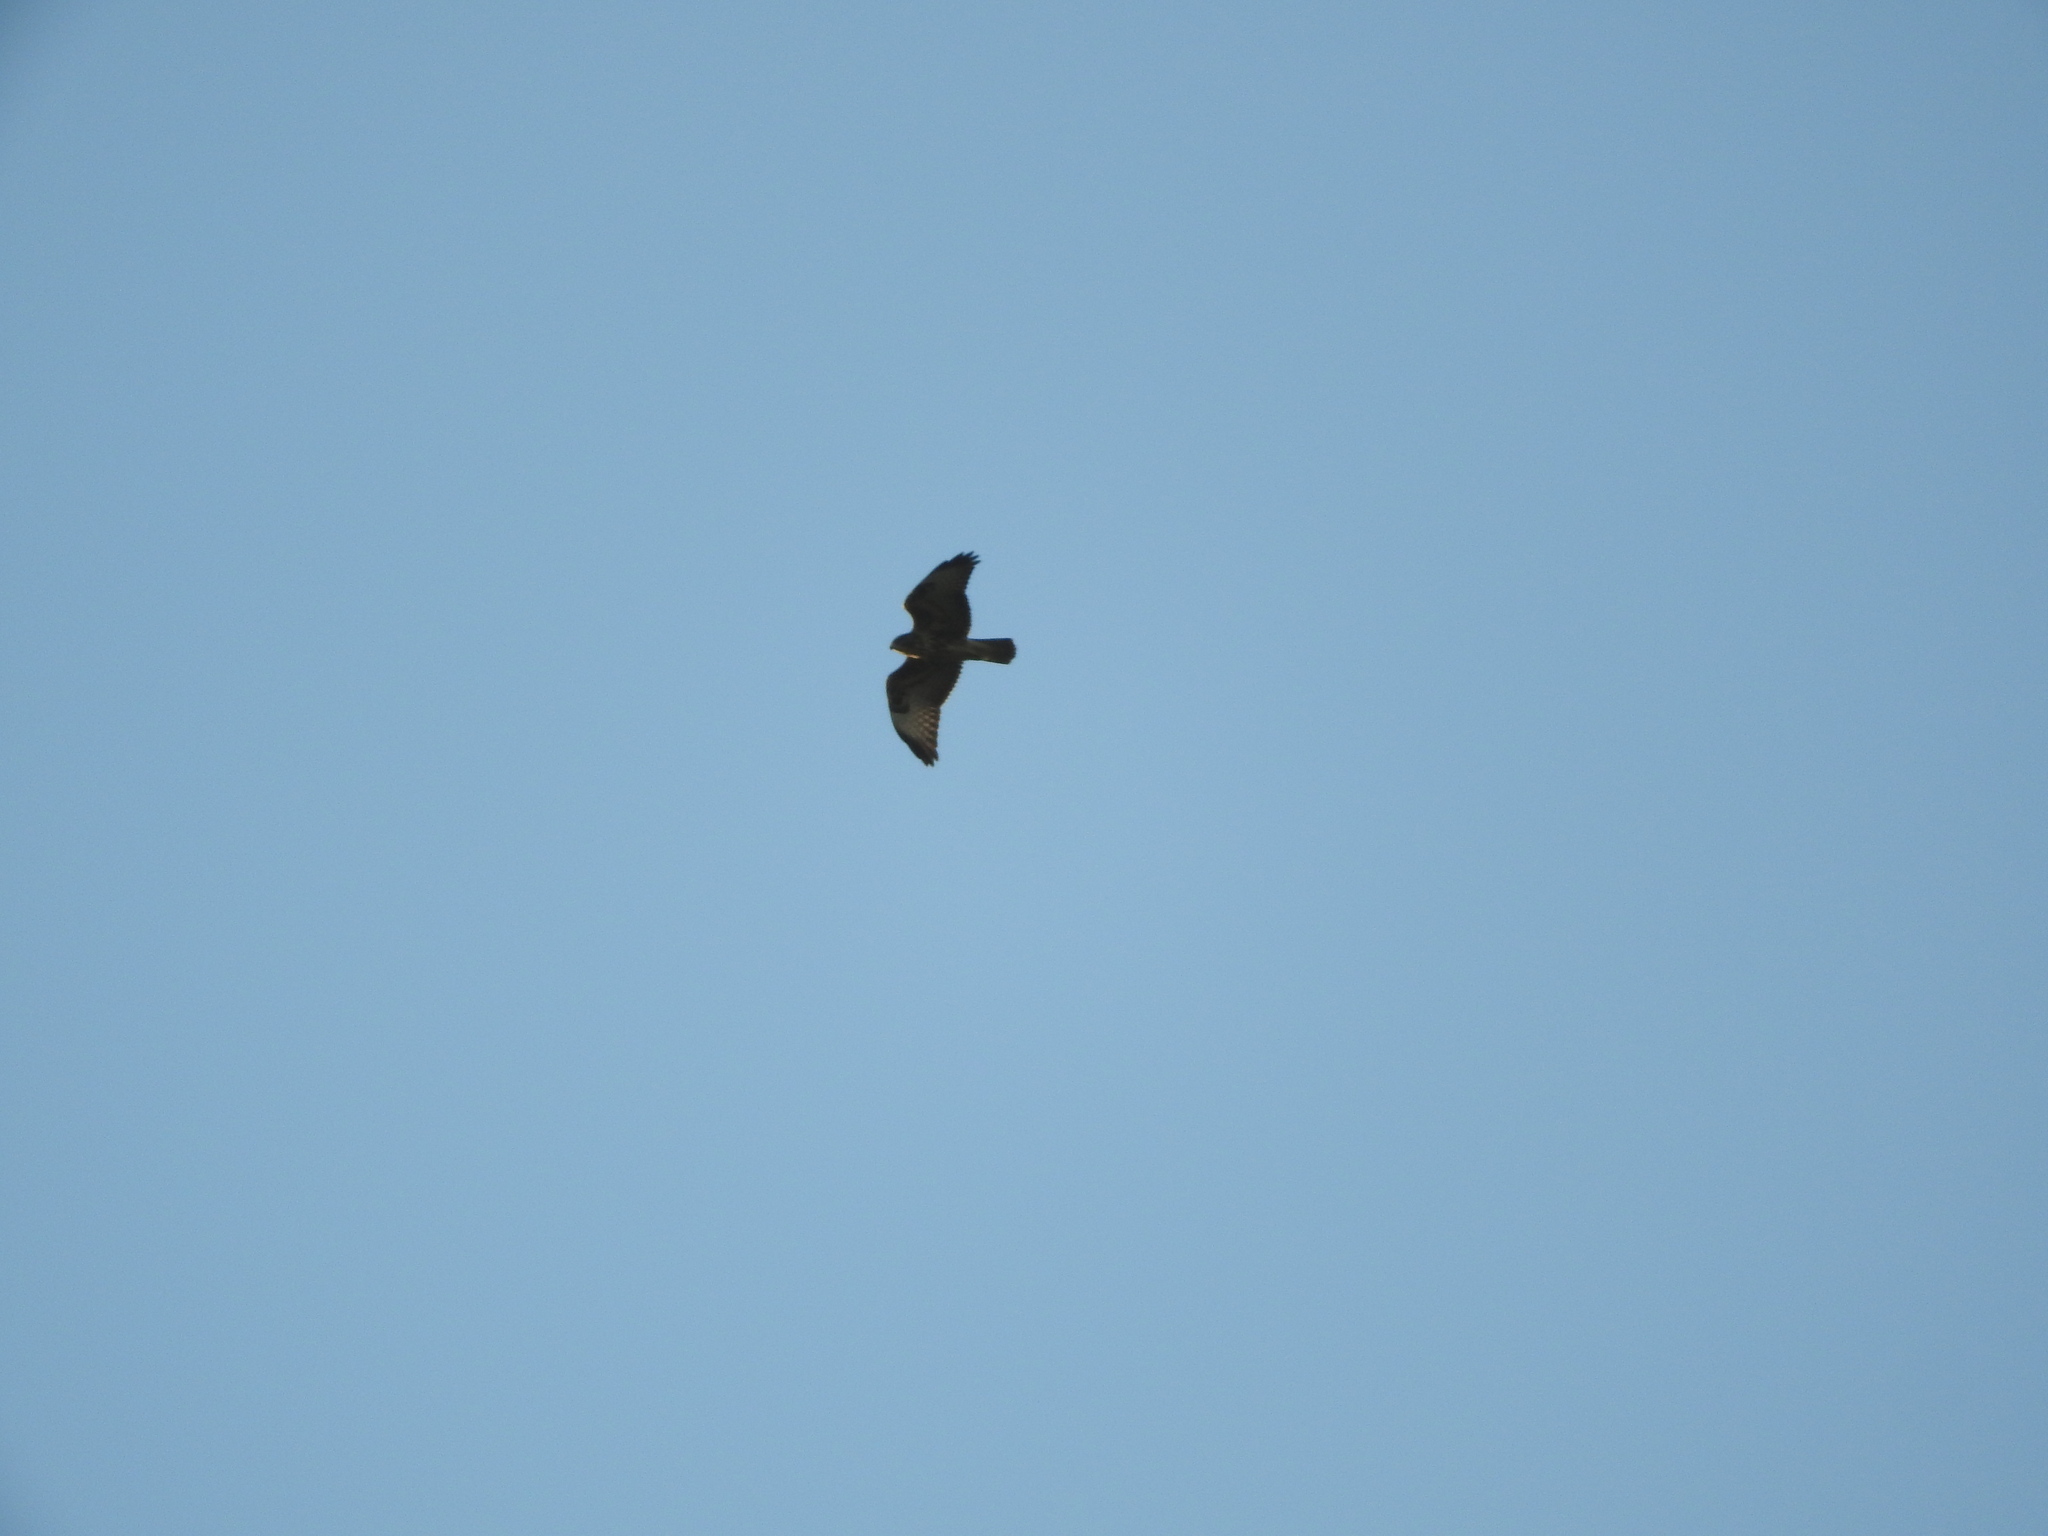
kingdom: Animalia
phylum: Chordata
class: Aves
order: Accipitriformes
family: Accipitridae
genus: Buteo
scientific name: Buteo buteo
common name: Common buzzard
